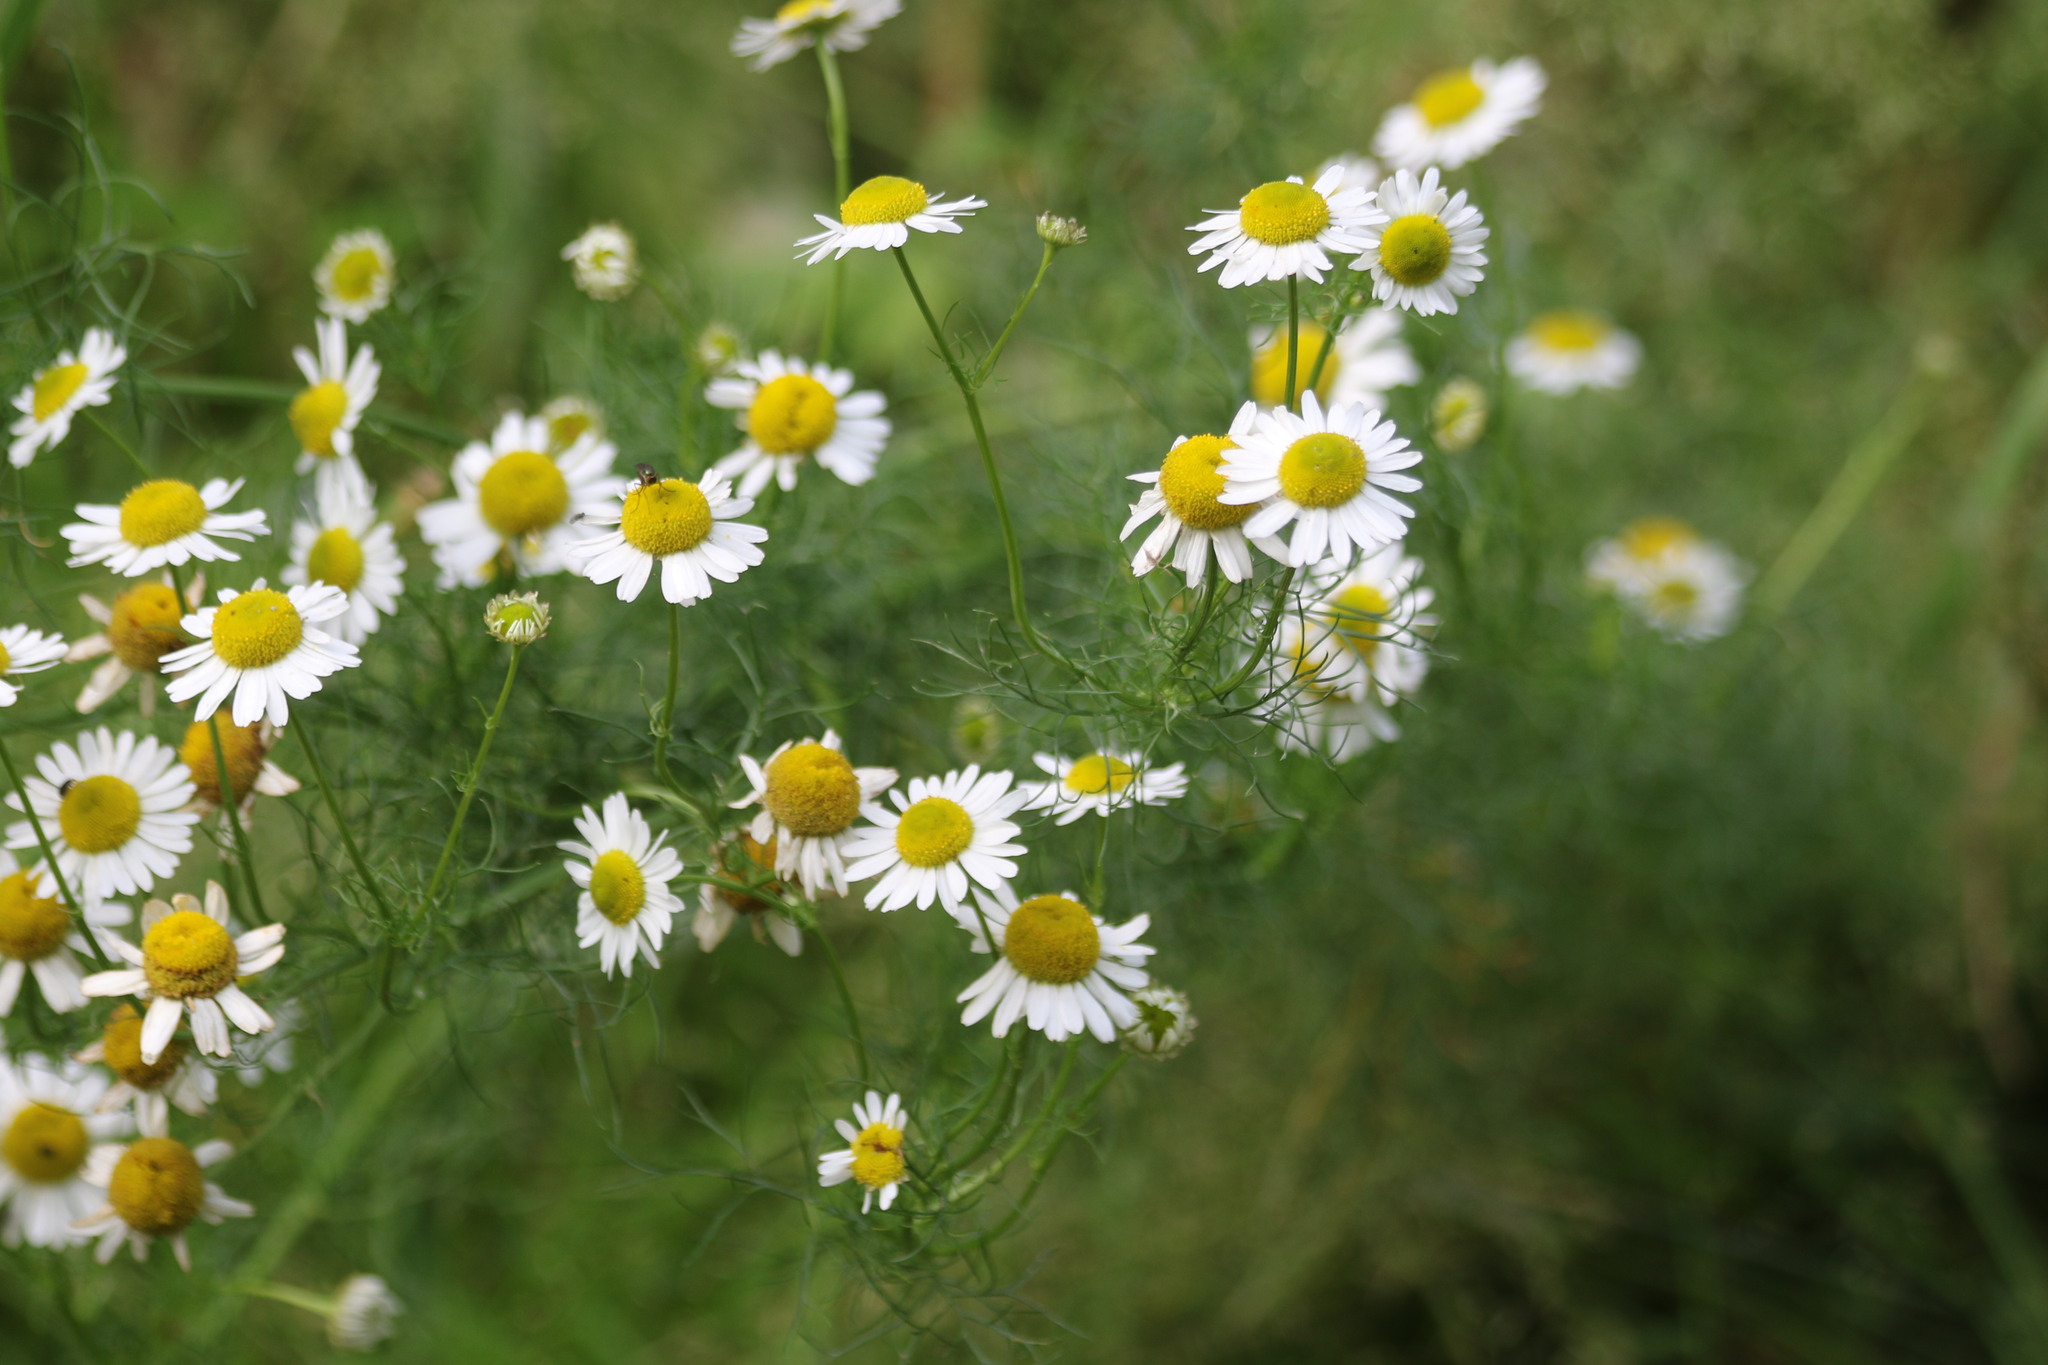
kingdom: Plantae
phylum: Tracheophyta
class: Magnoliopsida
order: Asterales
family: Asteraceae
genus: Tripleurospermum
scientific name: Tripleurospermum inodorum
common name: Scentless mayweed
